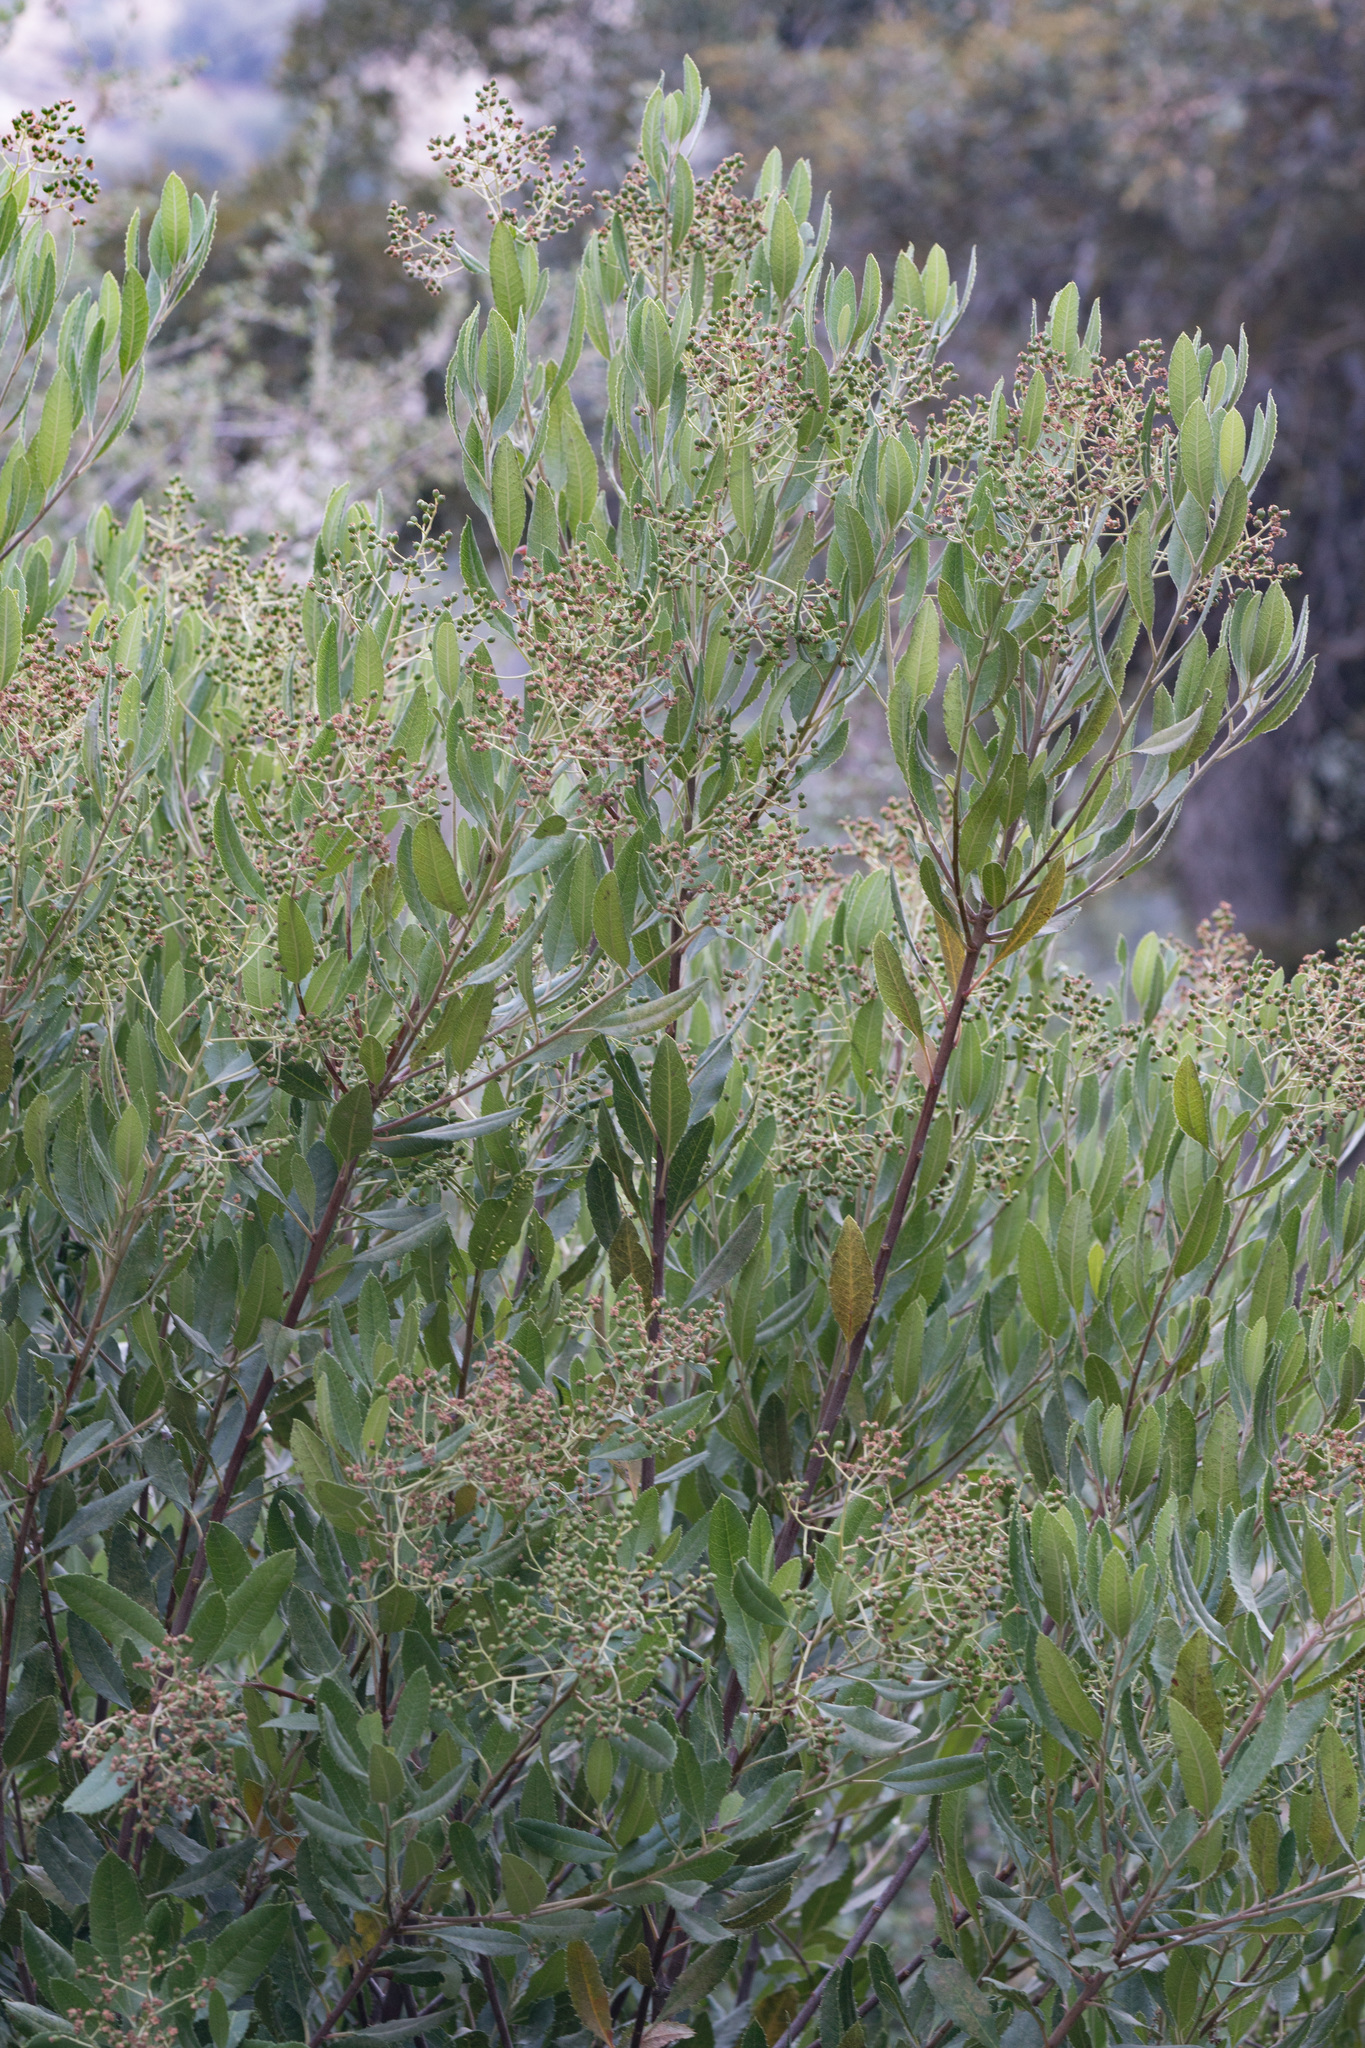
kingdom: Plantae
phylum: Tracheophyta
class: Magnoliopsida
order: Rosales
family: Rosaceae
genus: Heteromeles
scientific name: Heteromeles arbutifolia
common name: California-holly
